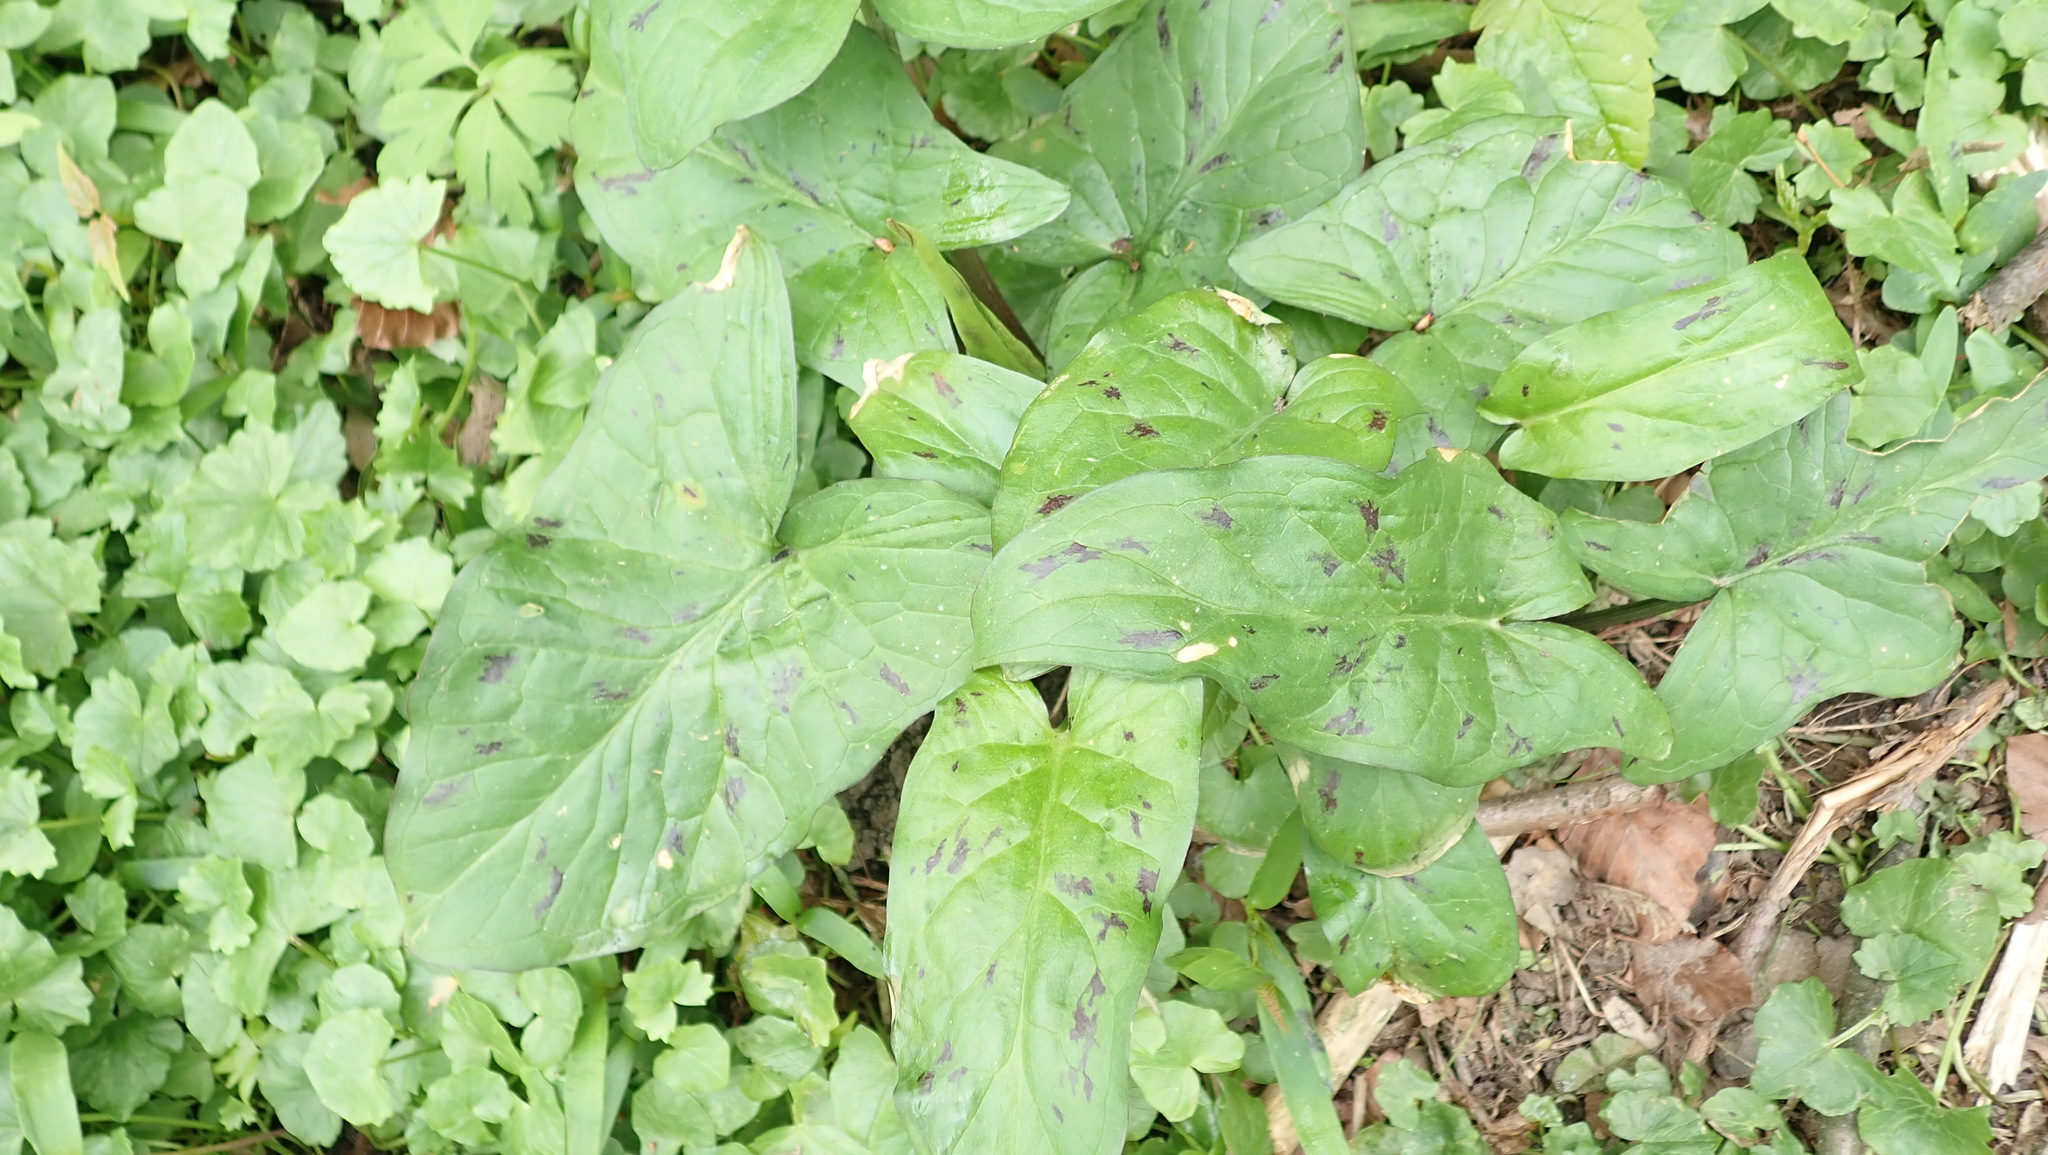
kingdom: Plantae
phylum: Tracheophyta
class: Liliopsida
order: Alismatales
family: Araceae
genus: Arum
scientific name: Arum maculatum
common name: Lords-and-ladies
